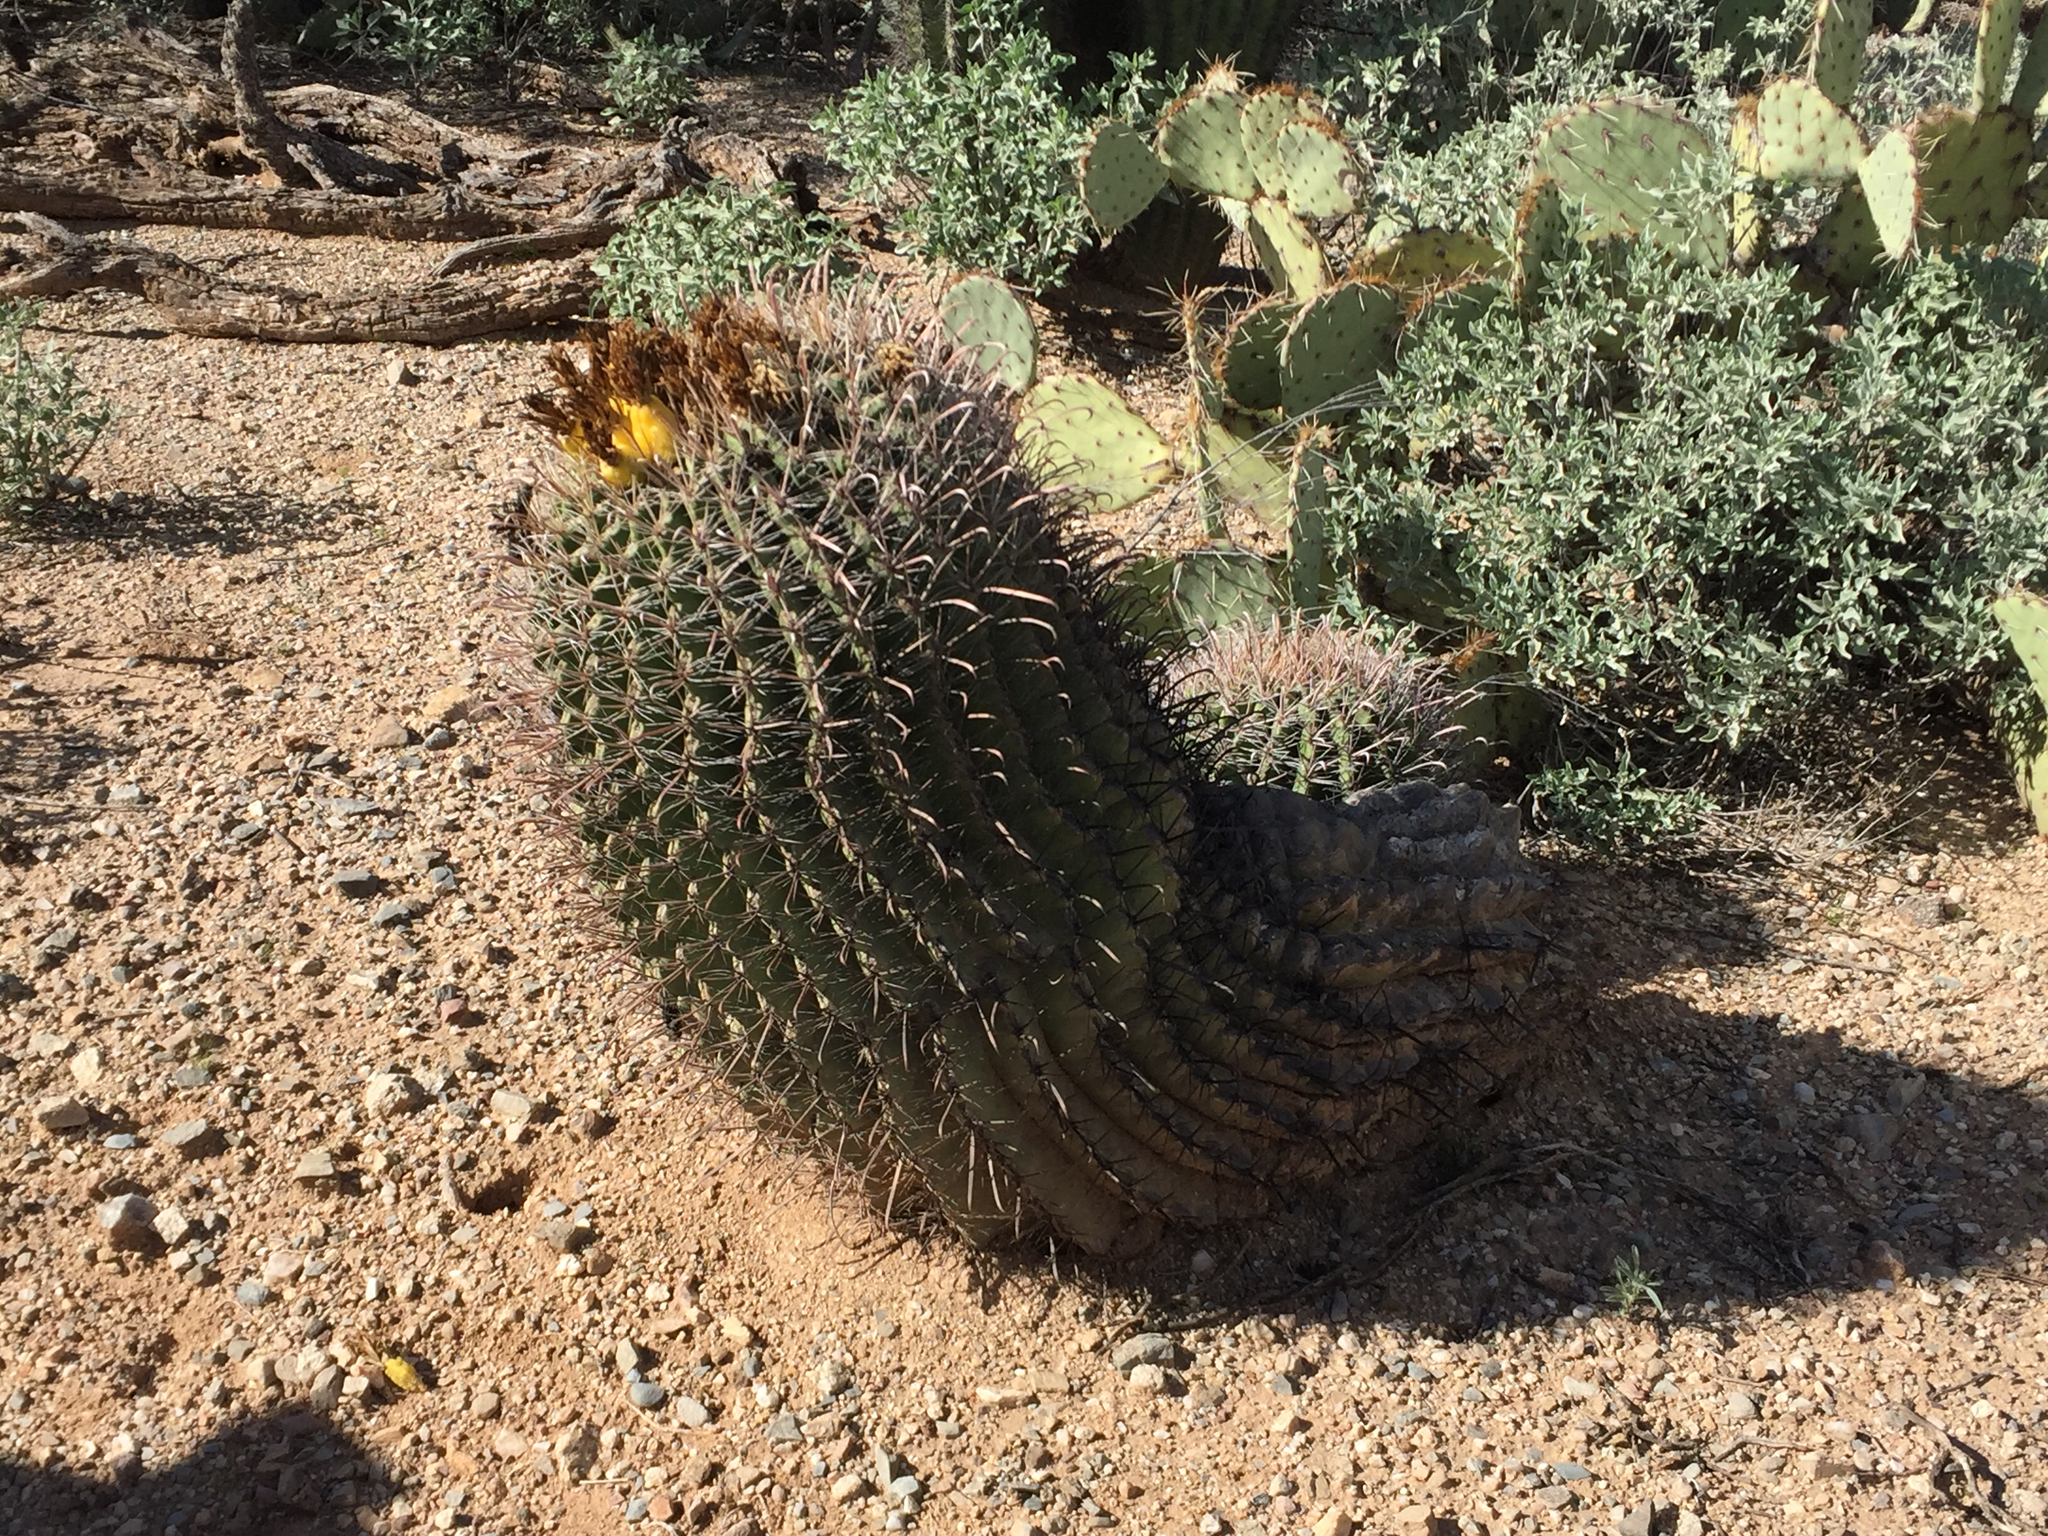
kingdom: Plantae
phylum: Tracheophyta
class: Magnoliopsida
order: Caryophyllales
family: Cactaceae
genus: Ferocactus
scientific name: Ferocactus wislizeni
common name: Candy barrel cactus
